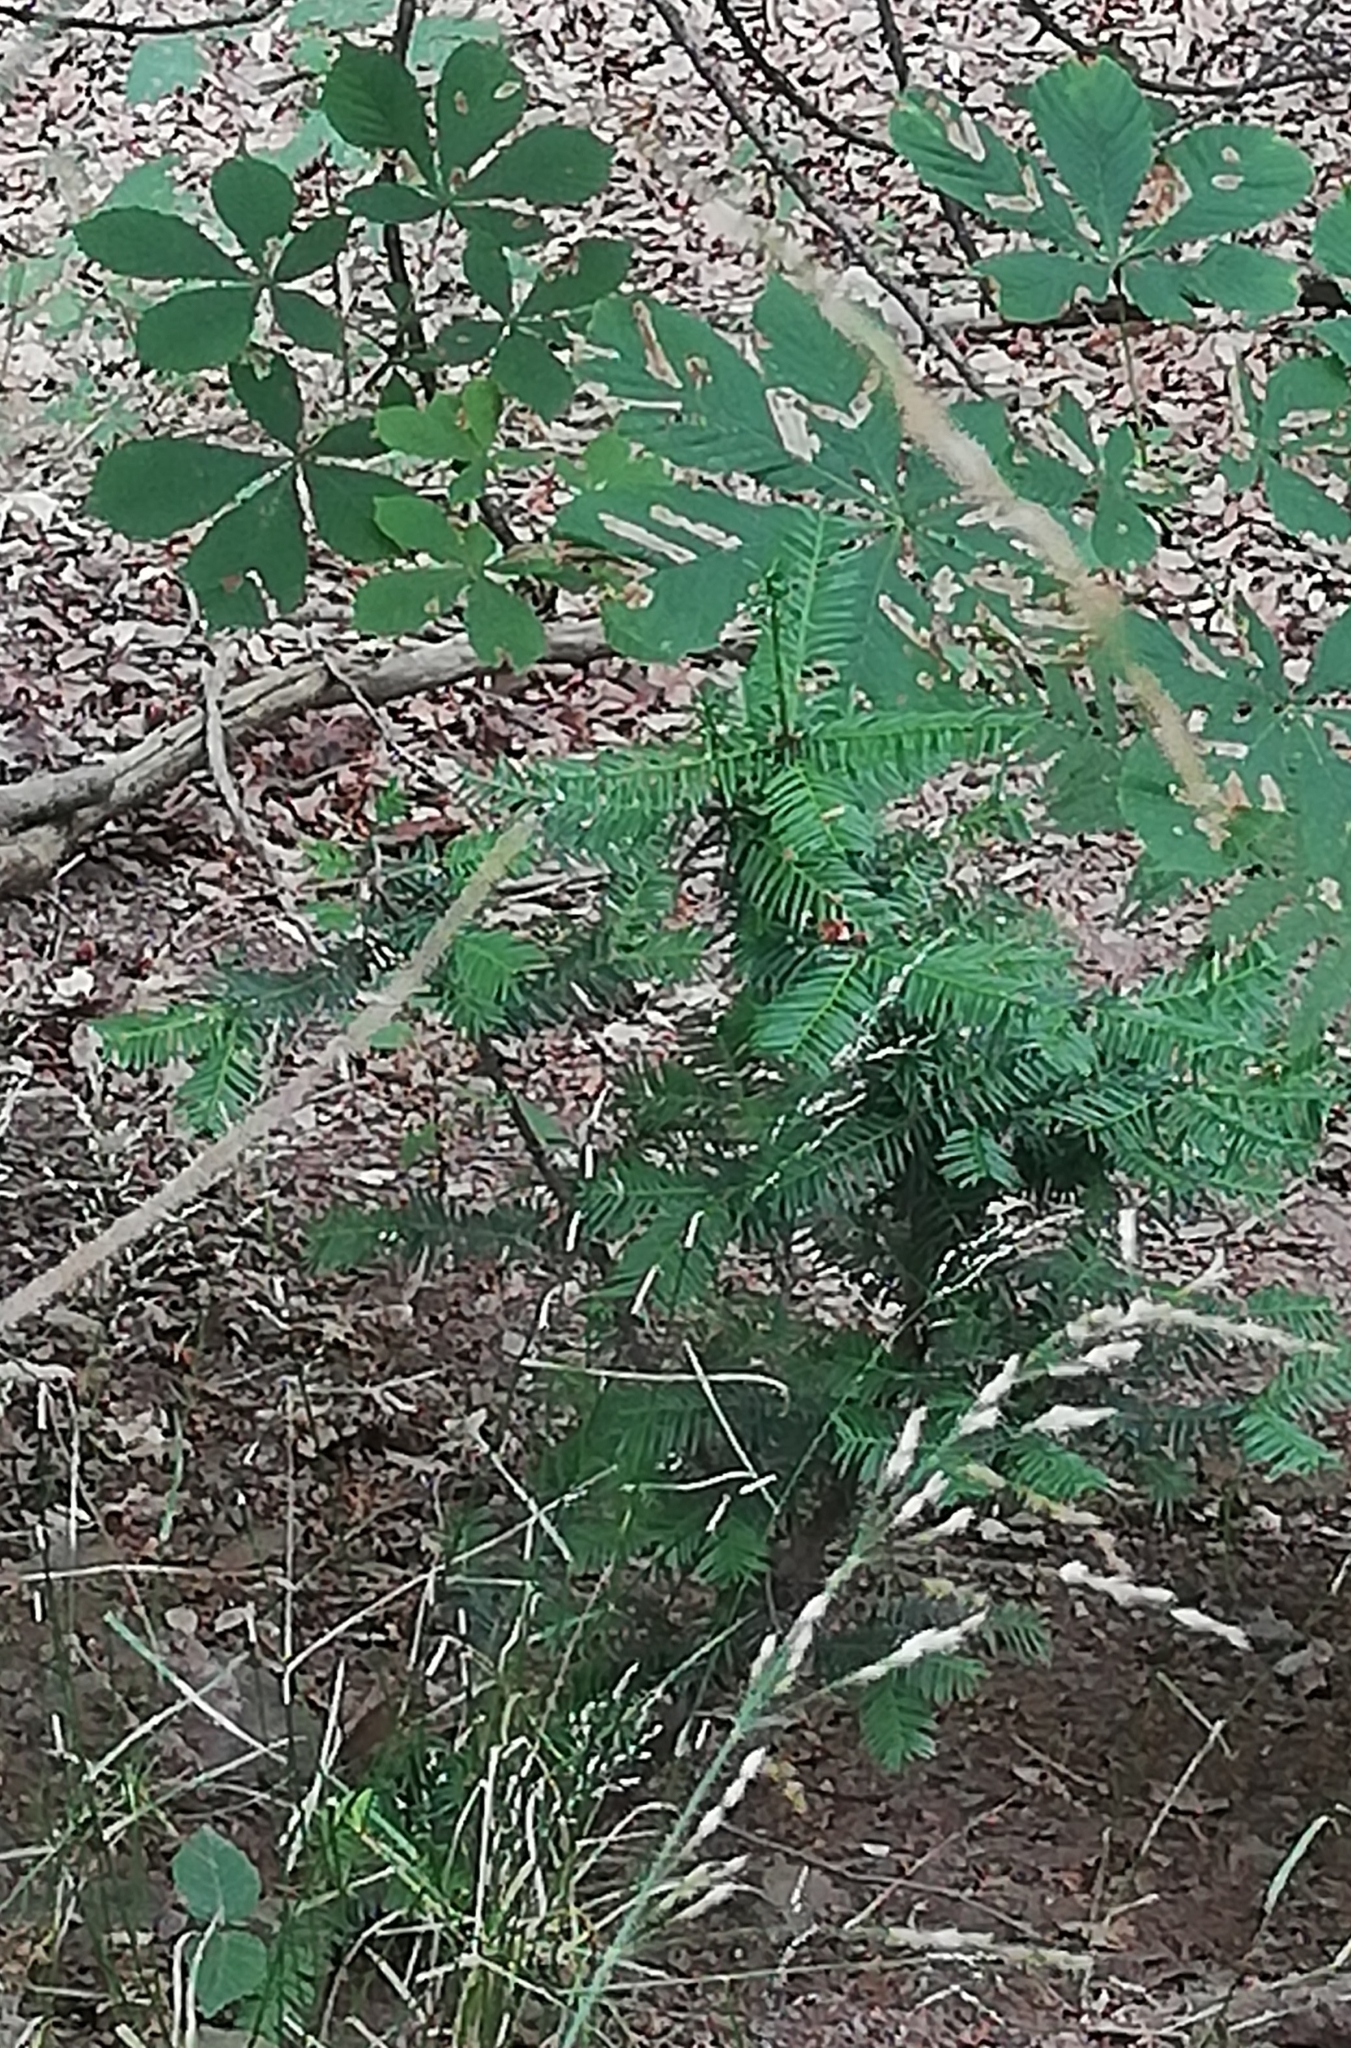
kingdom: Plantae
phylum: Tracheophyta
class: Pinopsida
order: Pinales
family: Taxaceae
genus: Taxus
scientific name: Taxus baccata
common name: Yew
